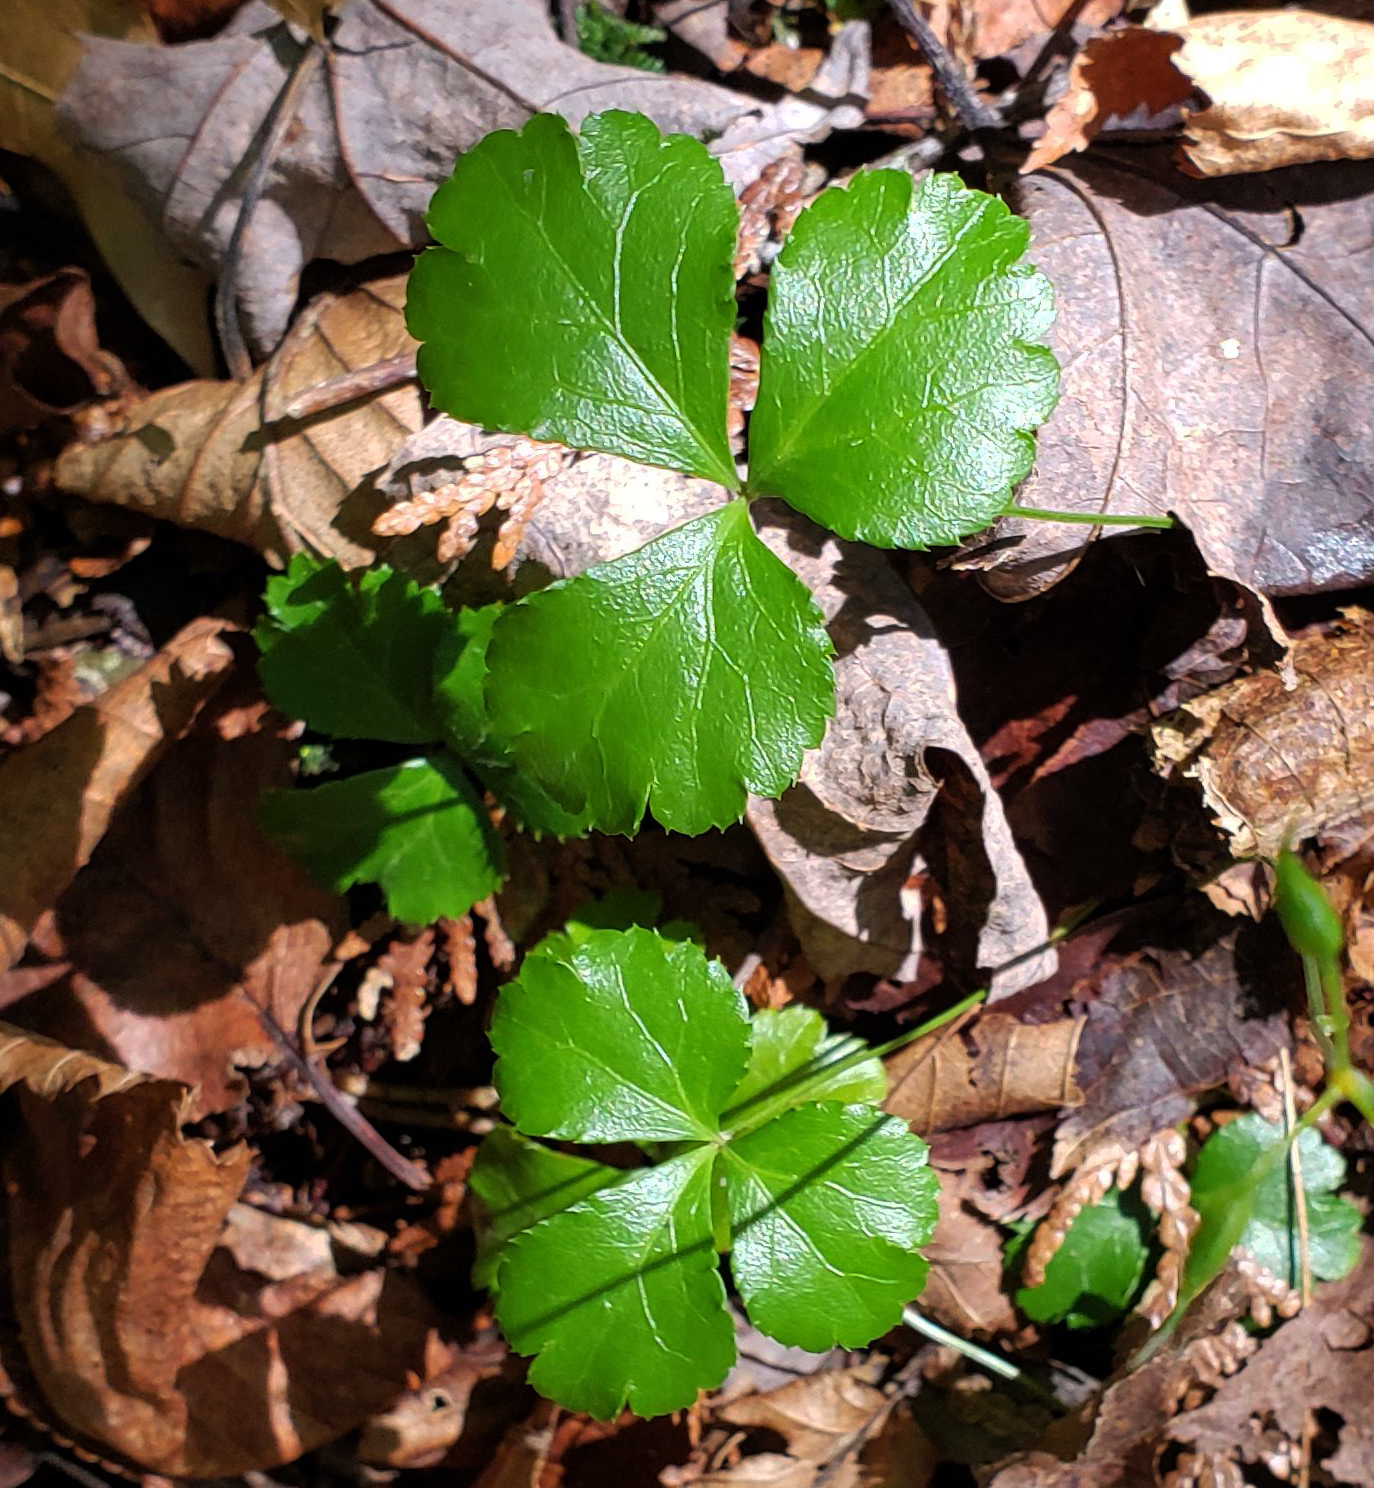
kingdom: Plantae
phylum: Tracheophyta
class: Magnoliopsida
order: Ranunculales
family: Ranunculaceae
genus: Coptis
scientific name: Coptis trifolia
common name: Canker-root
